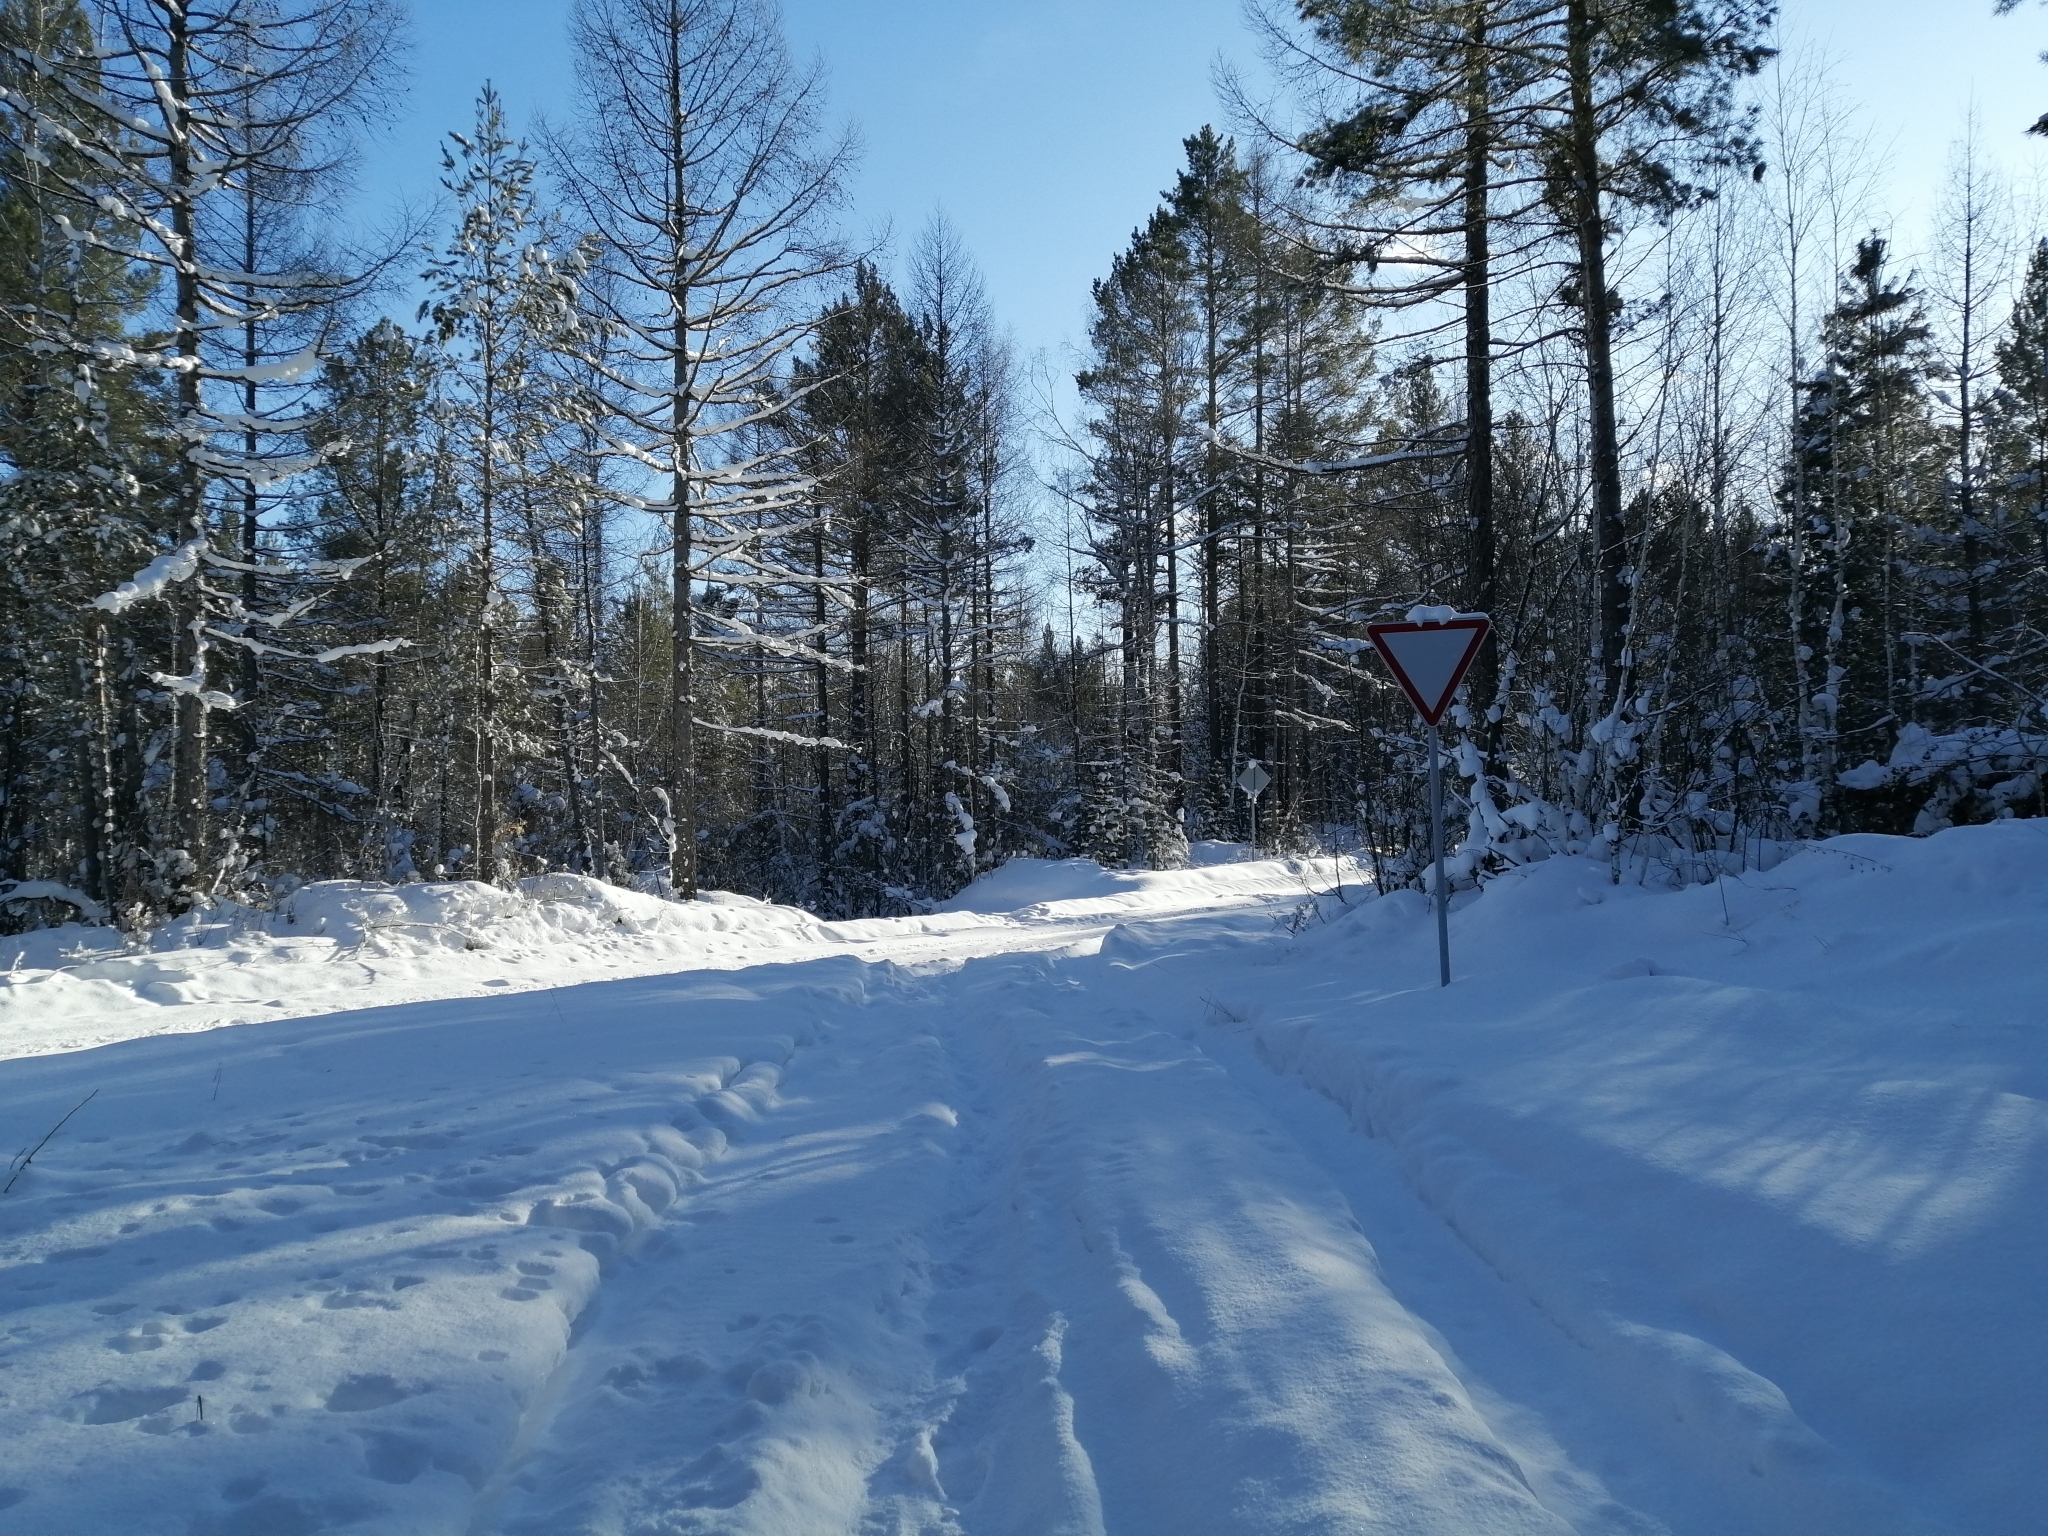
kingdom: Plantae
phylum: Tracheophyta
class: Pinopsida
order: Pinales
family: Pinaceae
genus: Larix
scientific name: Larix sibirica
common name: Siberian larch
